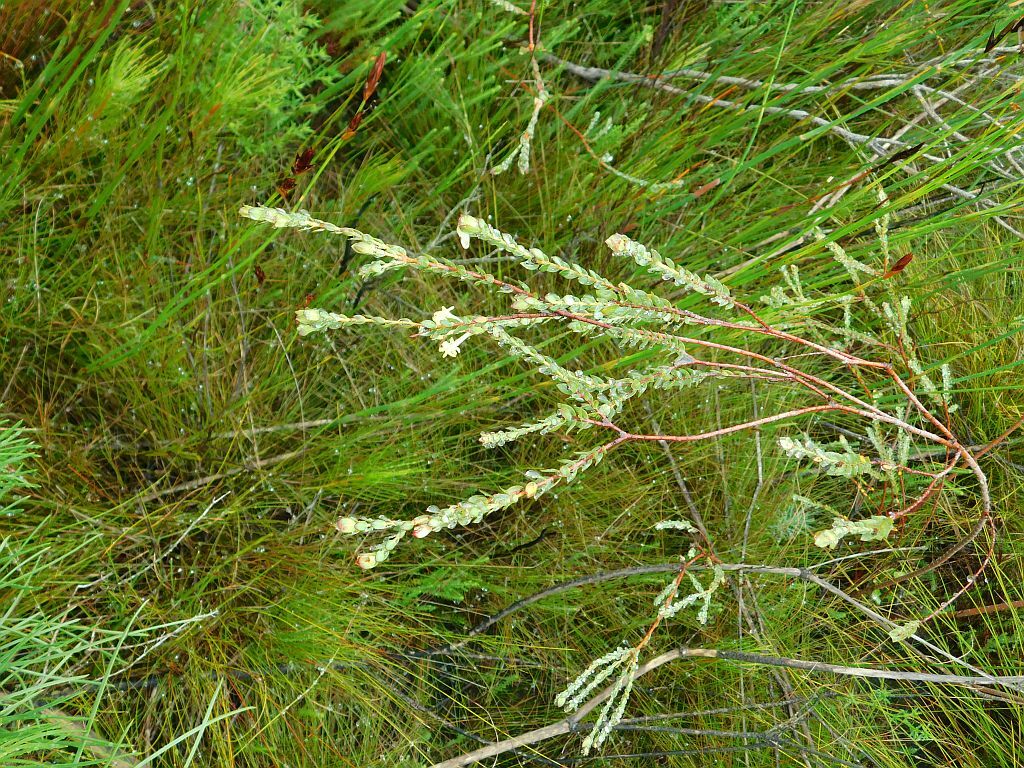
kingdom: Plantae
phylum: Tracheophyta
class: Magnoliopsida
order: Malvales
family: Thymelaeaceae
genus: Gnidia
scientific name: Gnidia oppositifolia
